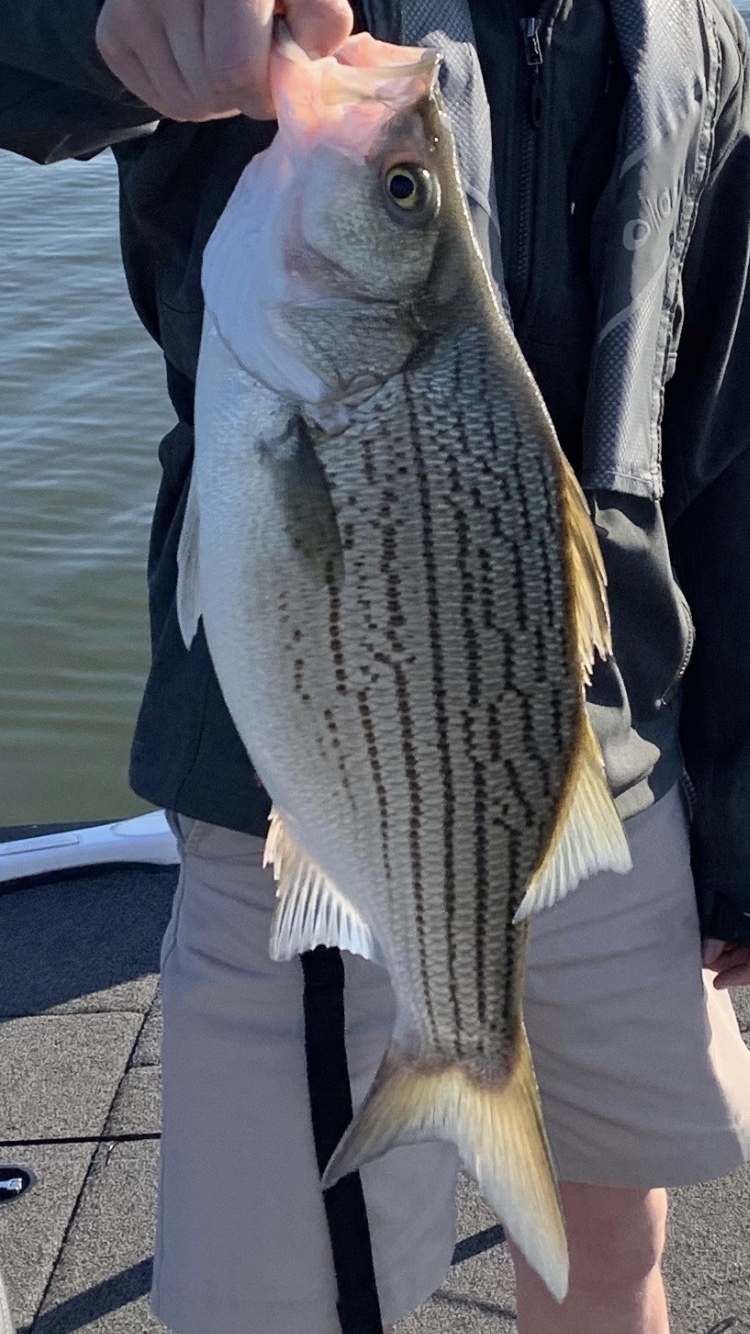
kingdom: Animalia
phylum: Chordata
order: Perciformes
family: Moronidae
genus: Morone
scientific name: Morone
